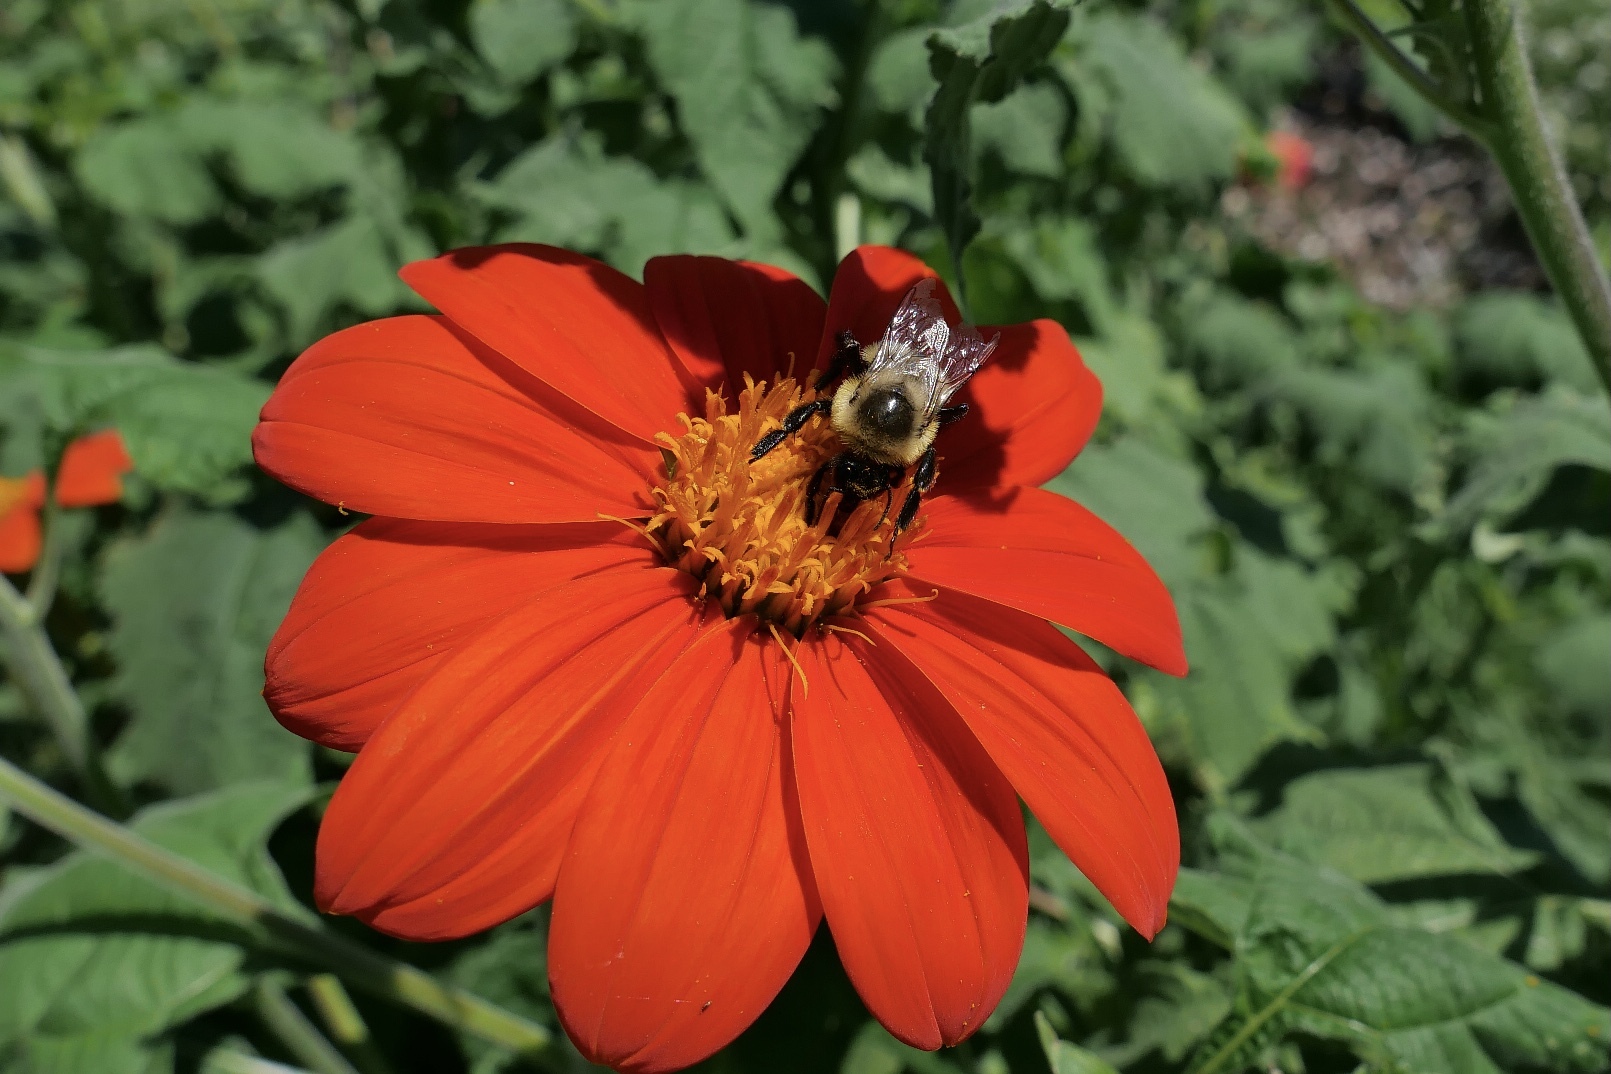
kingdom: Animalia
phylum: Arthropoda
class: Insecta
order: Hymenoptera
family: Apidae
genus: Bombus
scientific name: Bombus impatiens
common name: Common eastern bumble bee
